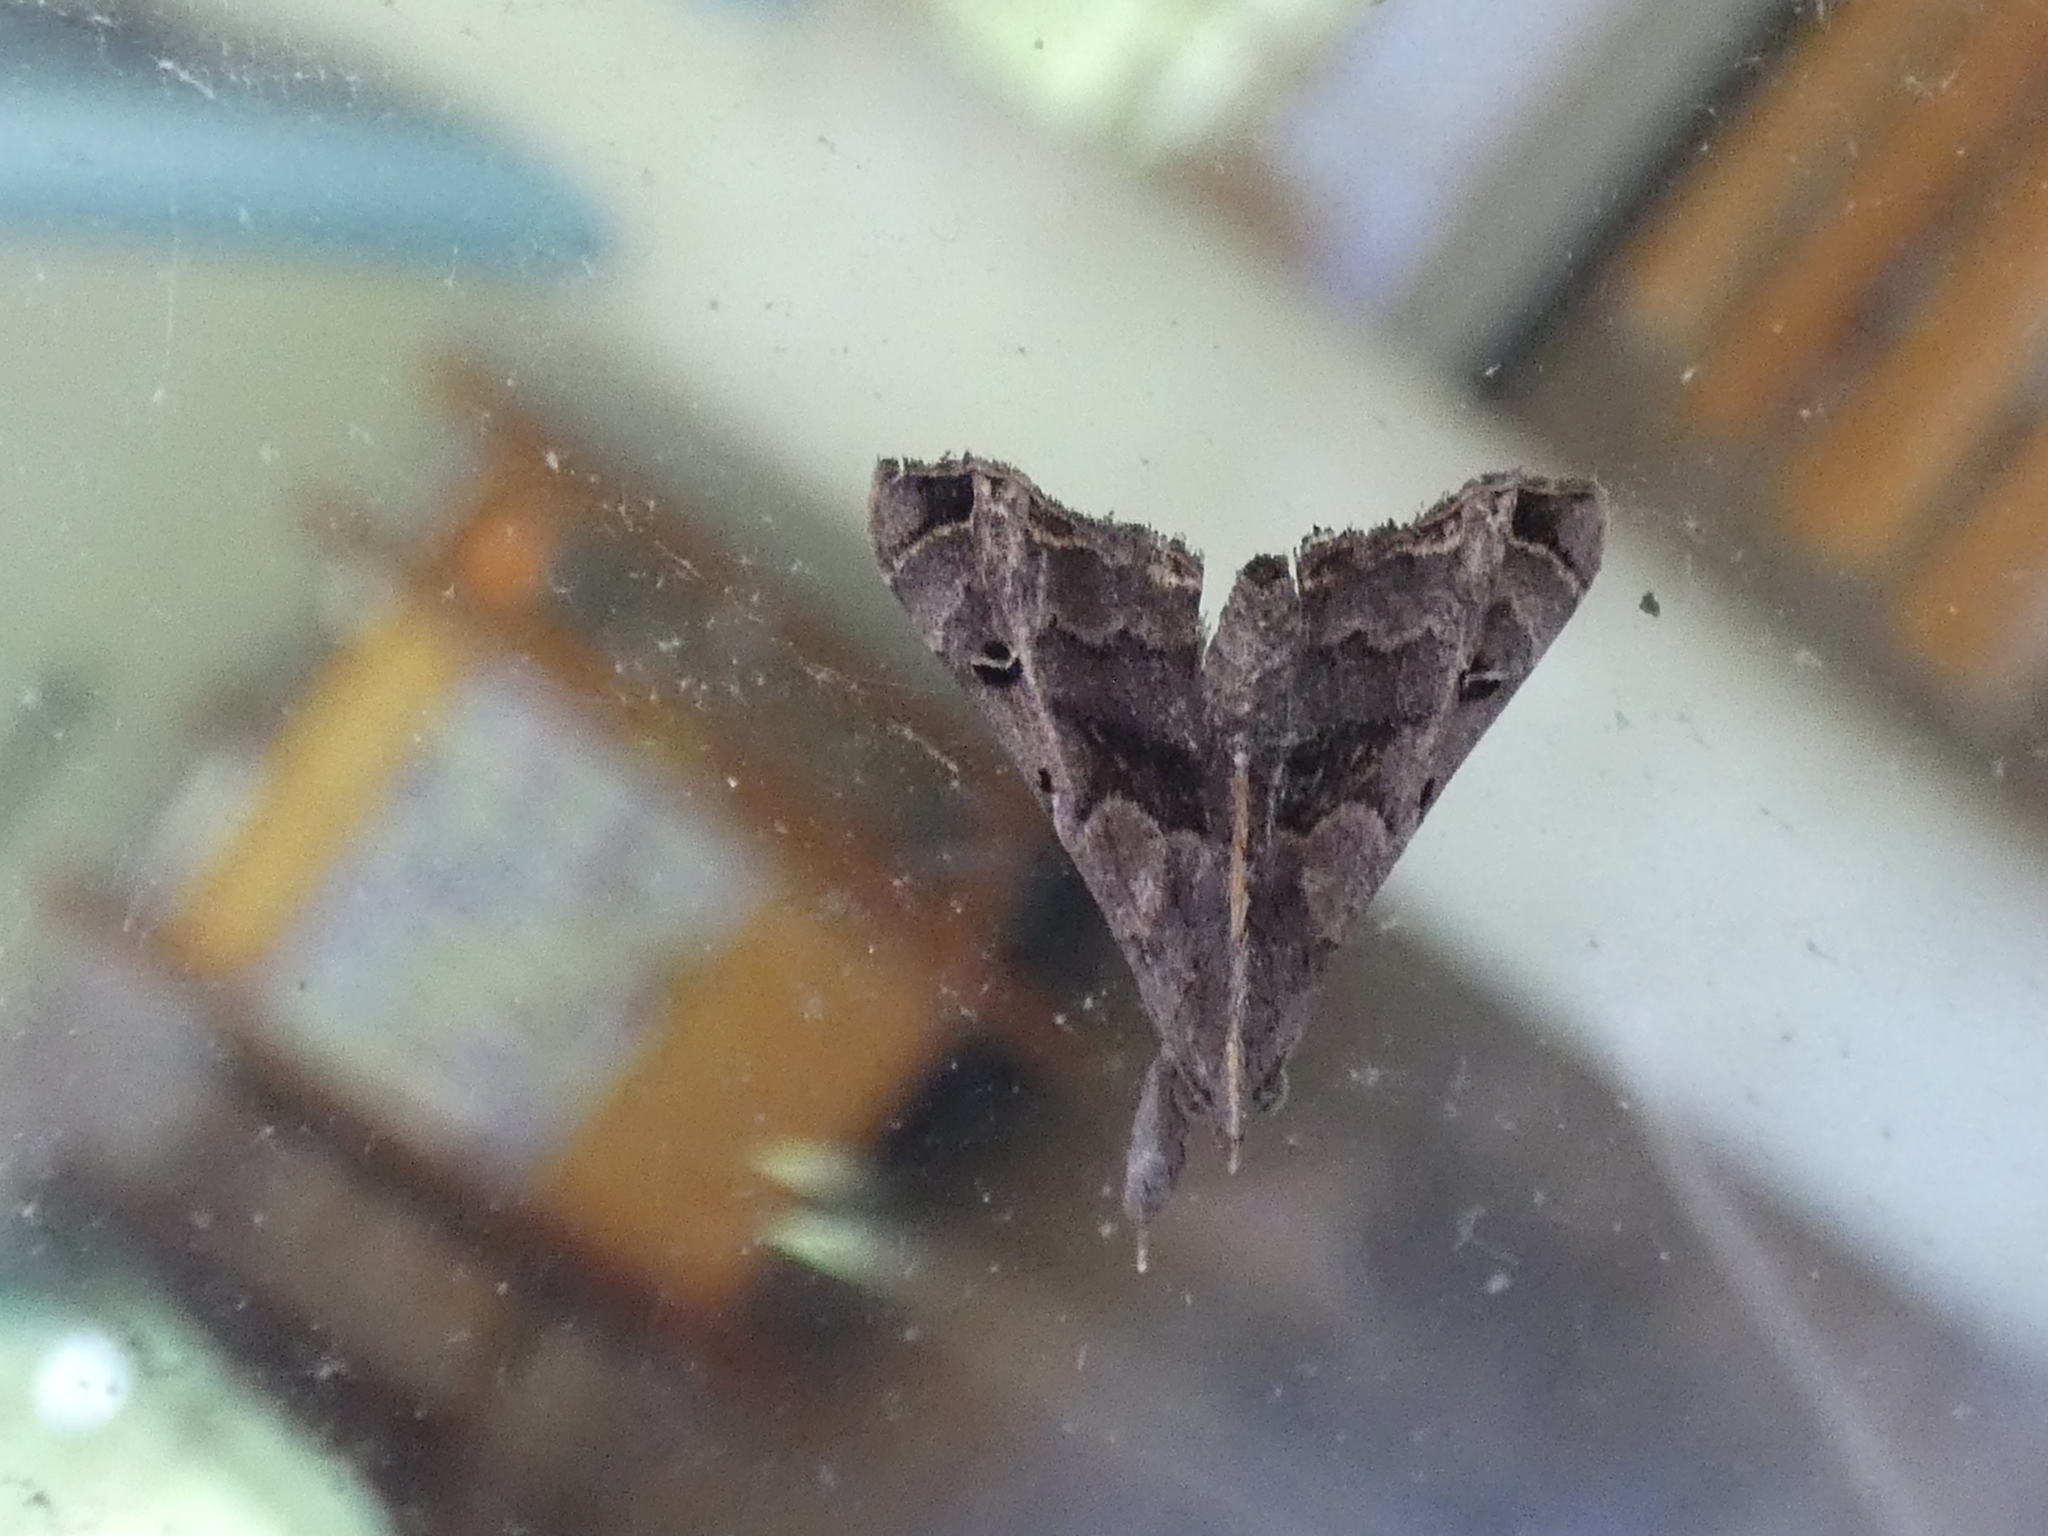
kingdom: Animalia
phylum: Arthropoda
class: Insecta
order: Lepidoptera
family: Erebidae
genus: Palthis
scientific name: Palthis asopialis
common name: Faint-spotted palthis moth
